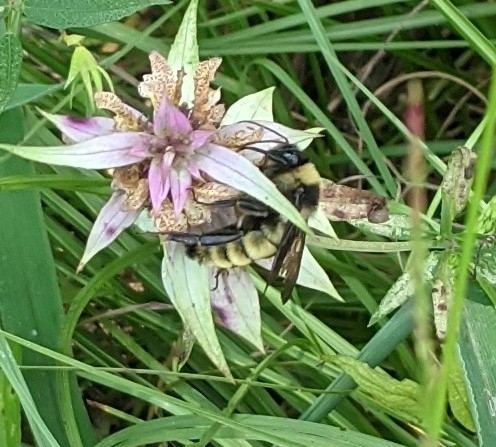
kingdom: Animalia
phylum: Arthropoda
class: Insecta
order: Hymenoptera
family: Apidae
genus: Bombus
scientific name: Bombus pensylvanicus
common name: Bumble bee
